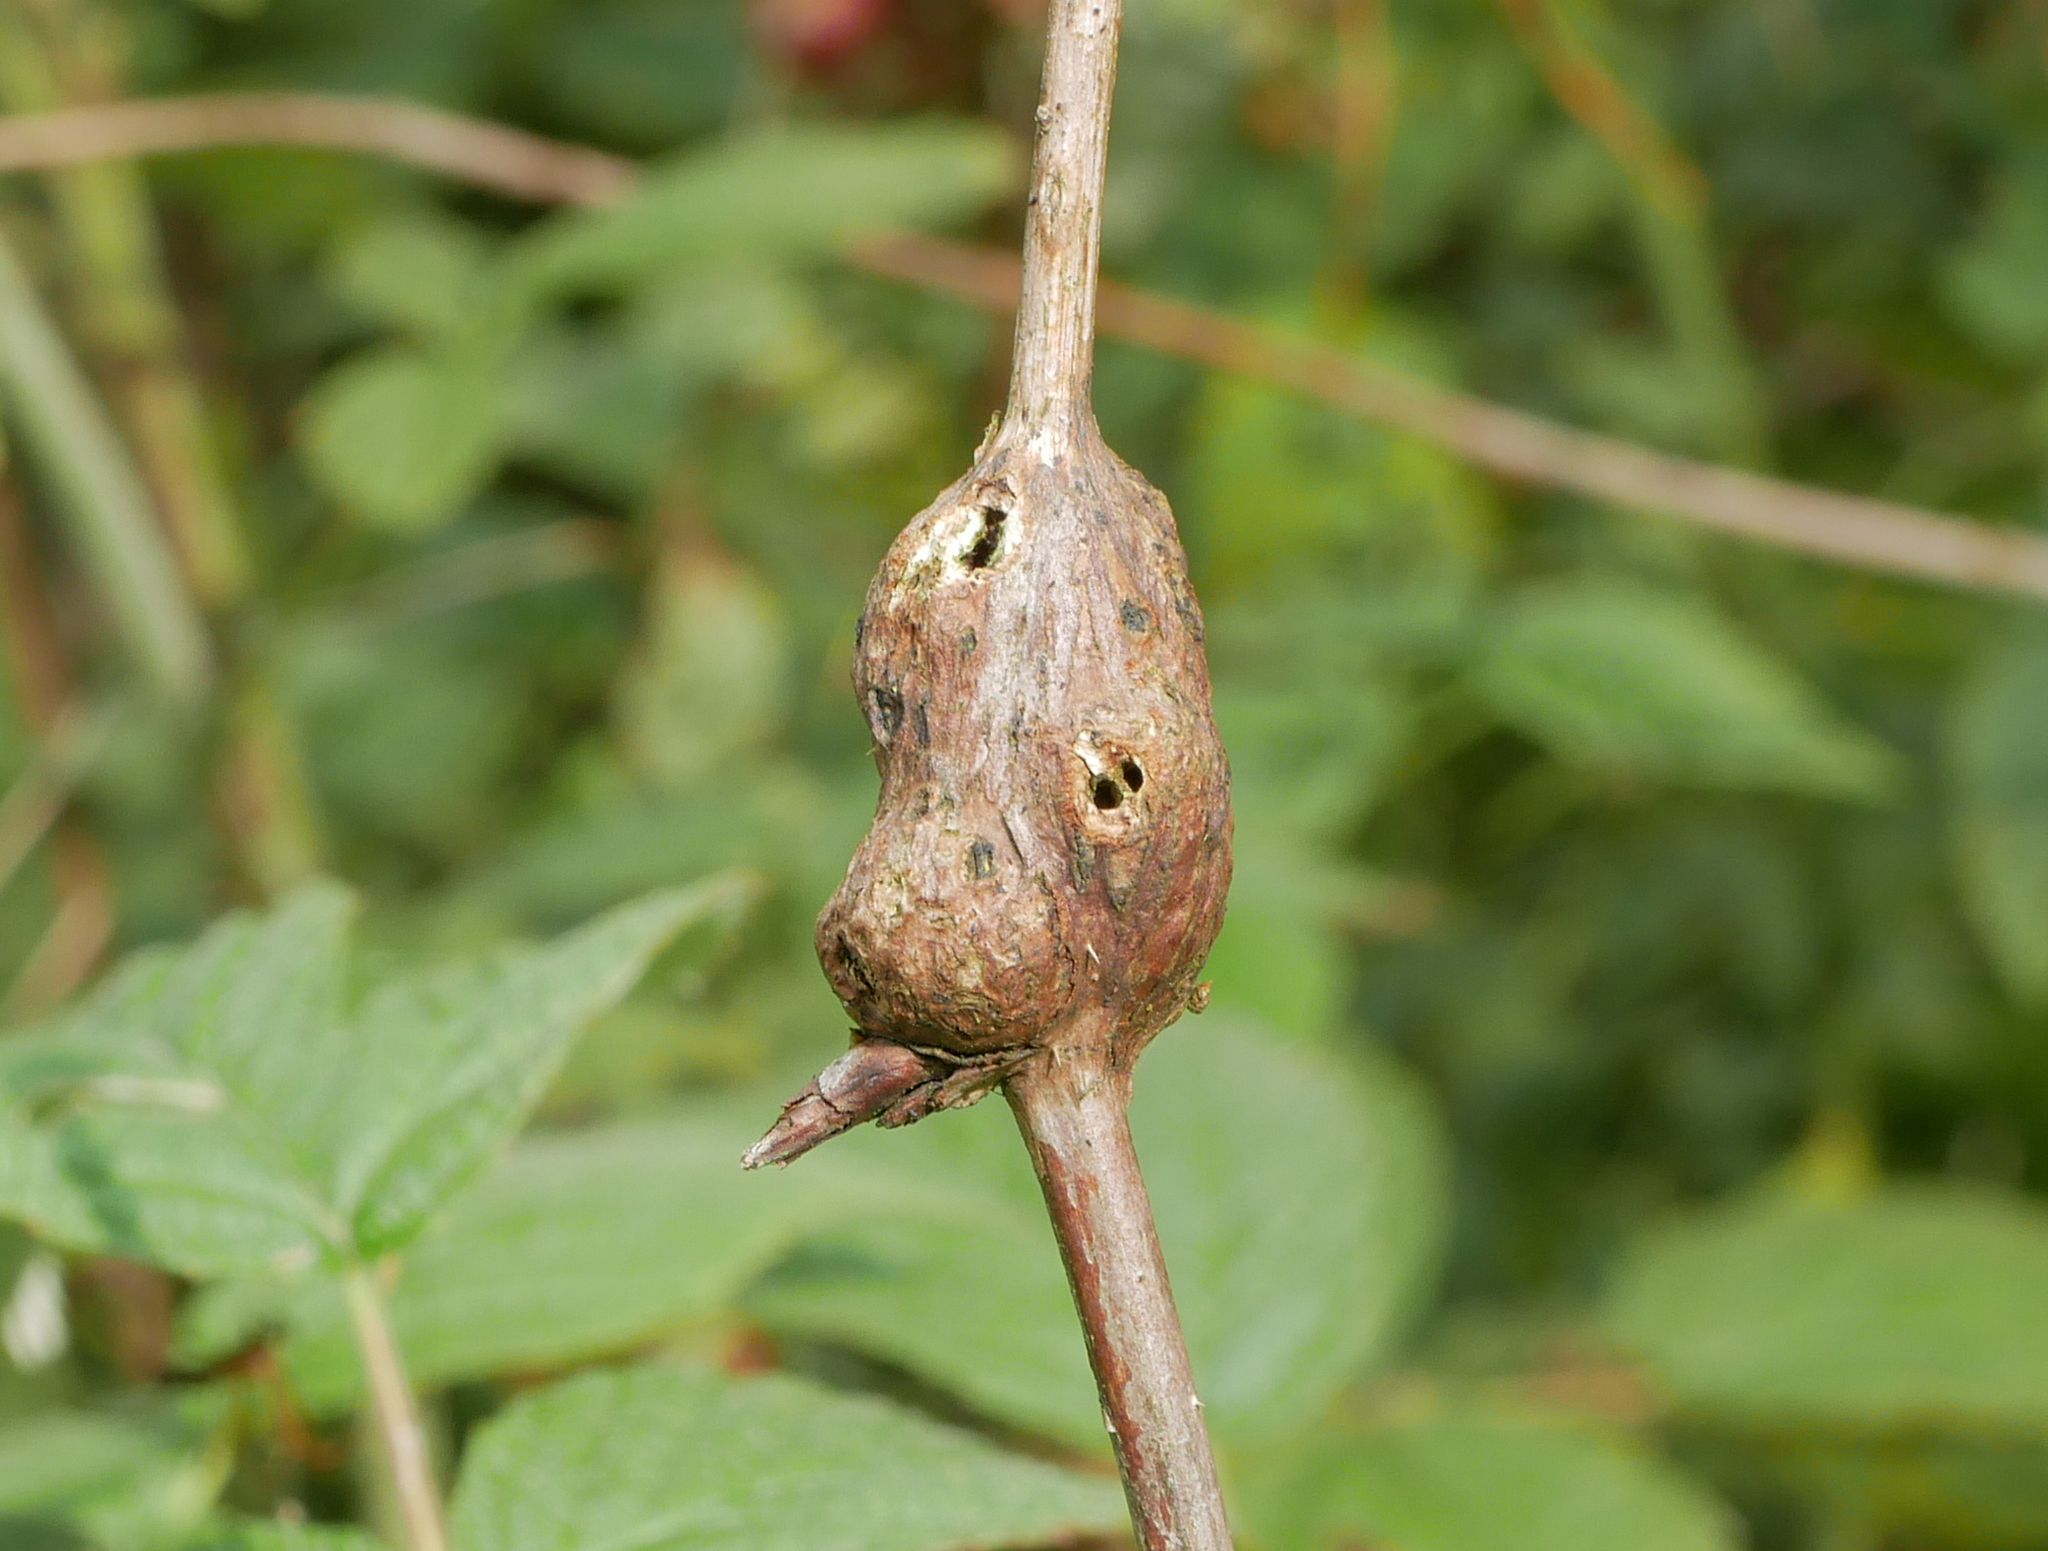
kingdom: Animalia
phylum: Arthropoda
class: Insecta
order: Diptera
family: Cecidomyiidae
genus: Lasioptera
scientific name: Lasioptera rubi
